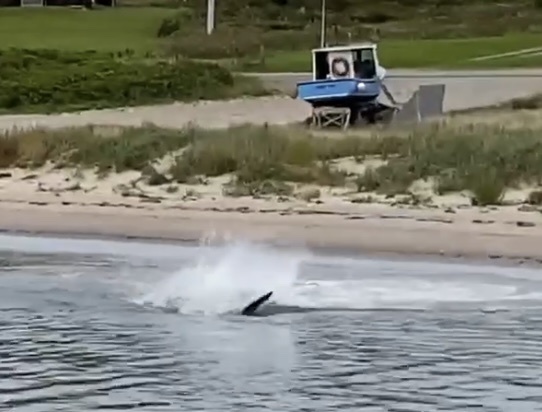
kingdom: Animalia
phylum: Chordata
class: Elasmobranchii
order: Lamniformes
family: Lamnidae
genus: Carcharodon
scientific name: Carcharodon carcharias
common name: Great white shark
